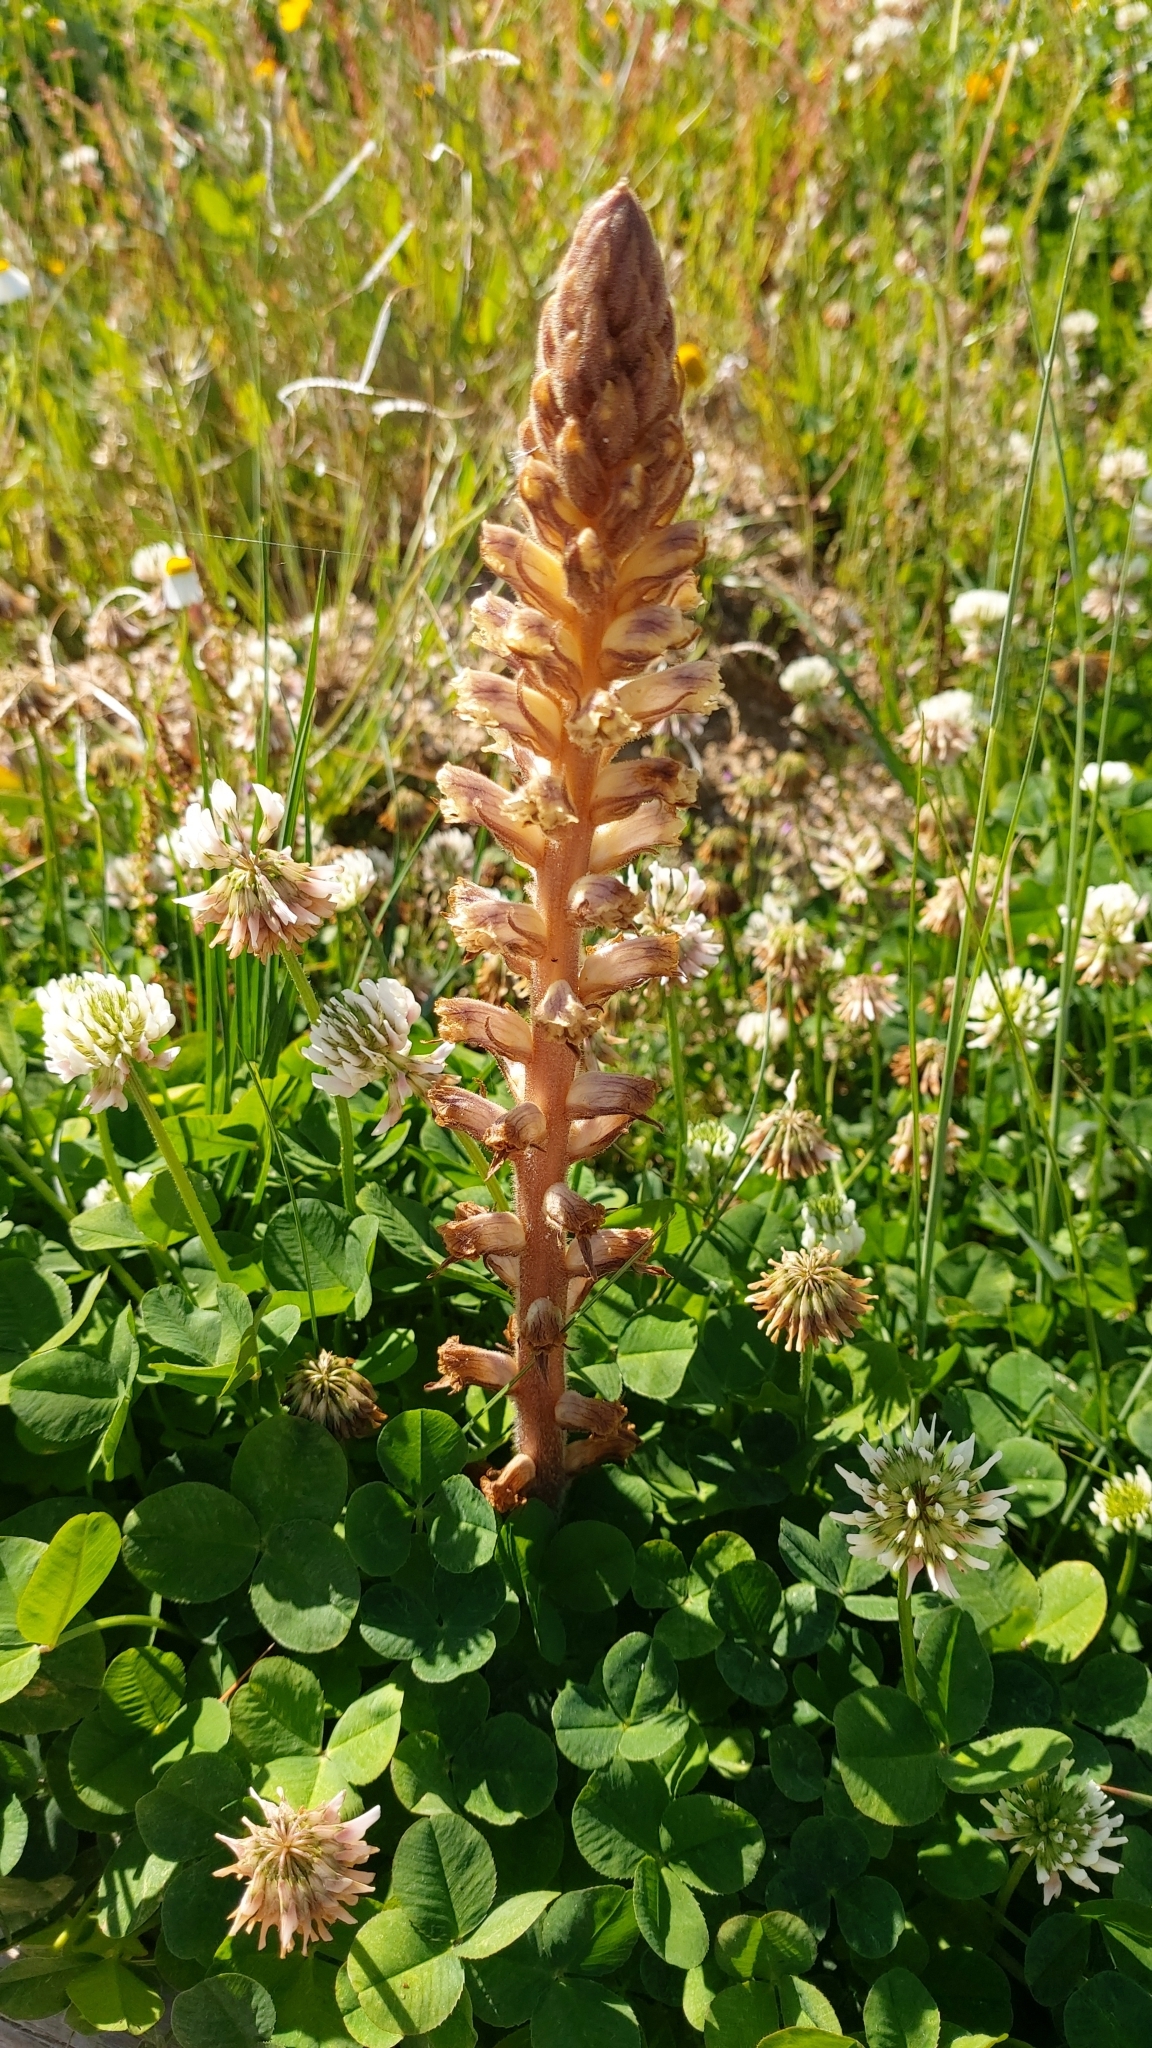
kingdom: Plantae
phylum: Tracheophyta
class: Magnoliopsida
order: Lamiales
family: Orobanchaceae
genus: Orobanche
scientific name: Orobanche minor
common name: Common broomrape
